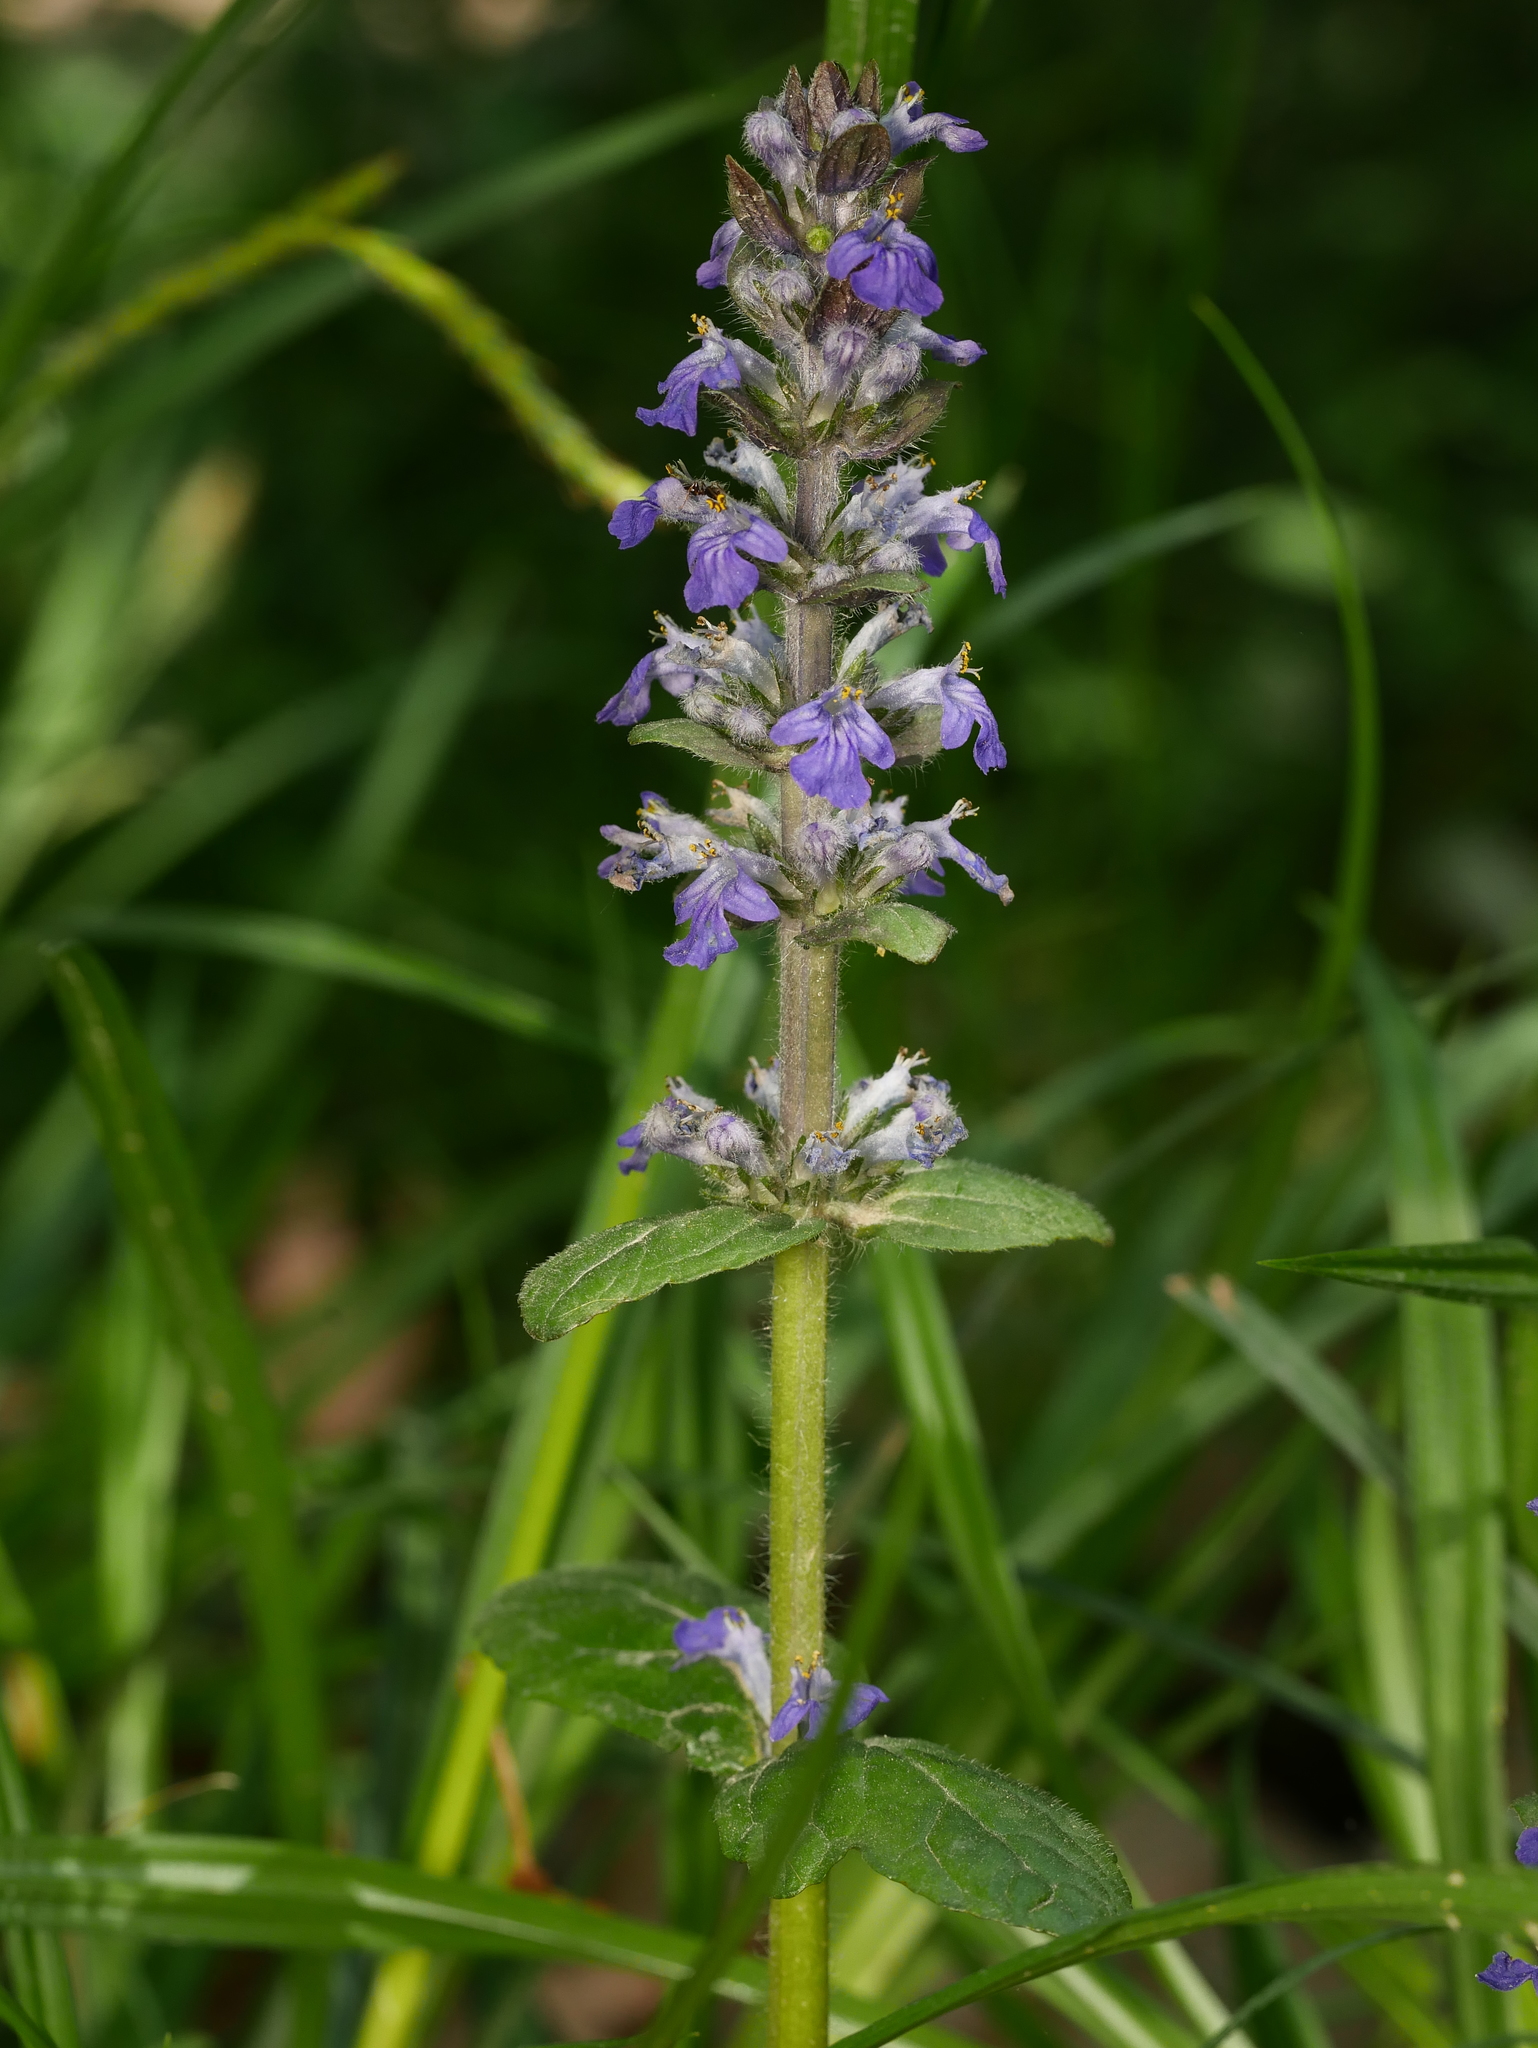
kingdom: Plantae
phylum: Tracheophyta
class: Magnoliopsida
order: Lamiales
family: Lamiaceae
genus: Ajuga
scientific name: Ajuga reptans
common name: Bugle
